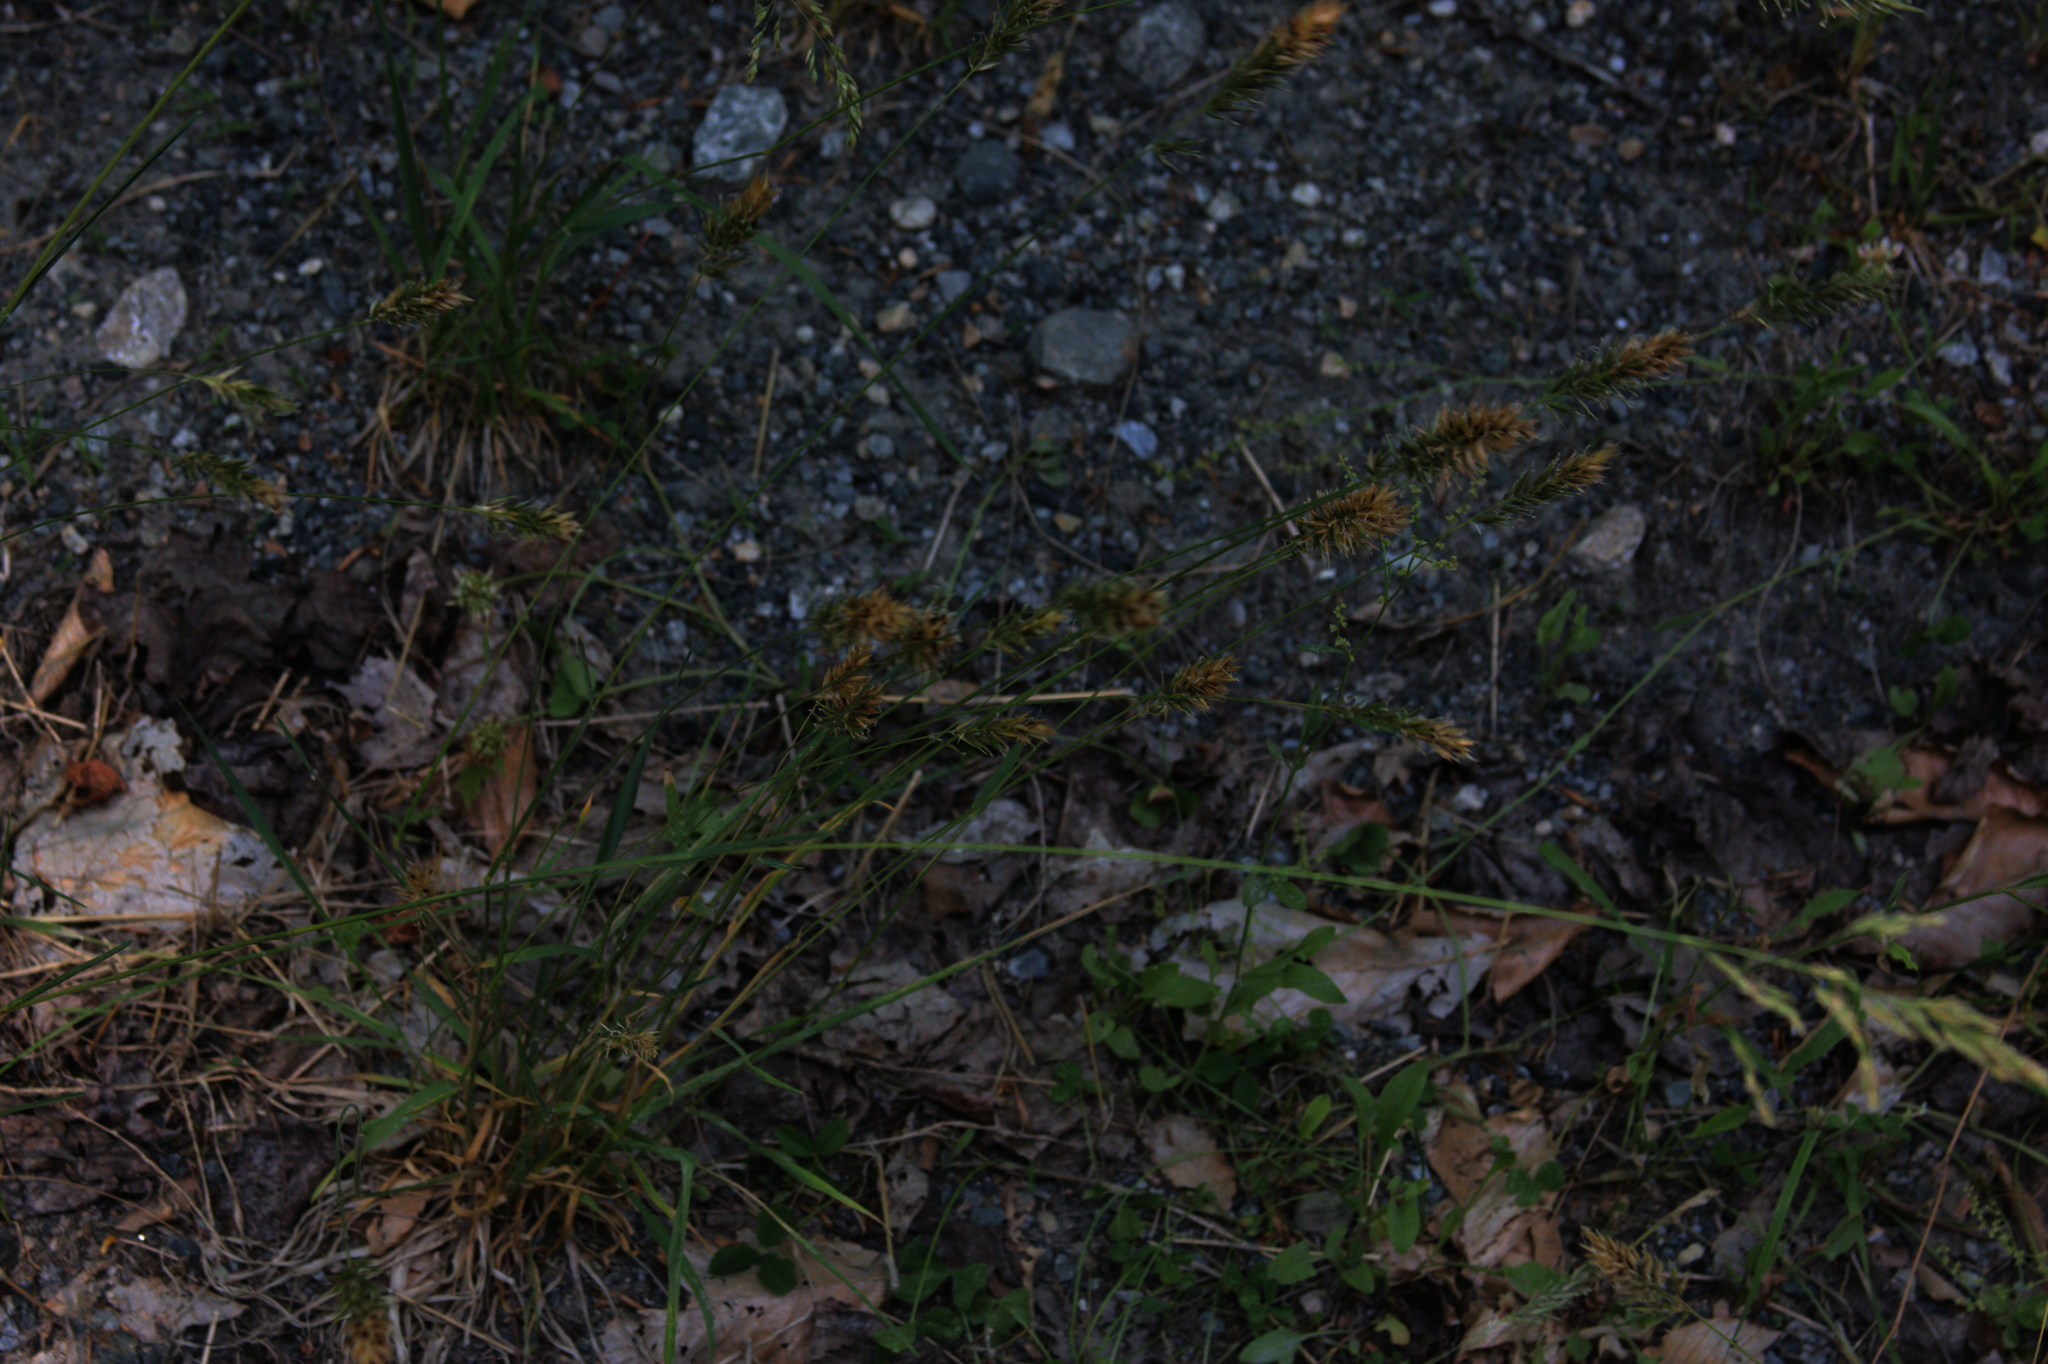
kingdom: Plantae
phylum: Tracheophyta
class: Liliopsida
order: Poales
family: Poaceae
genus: Anthoxanthum
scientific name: Anthoxanthum odoratum
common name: Sweet vernalgrass
